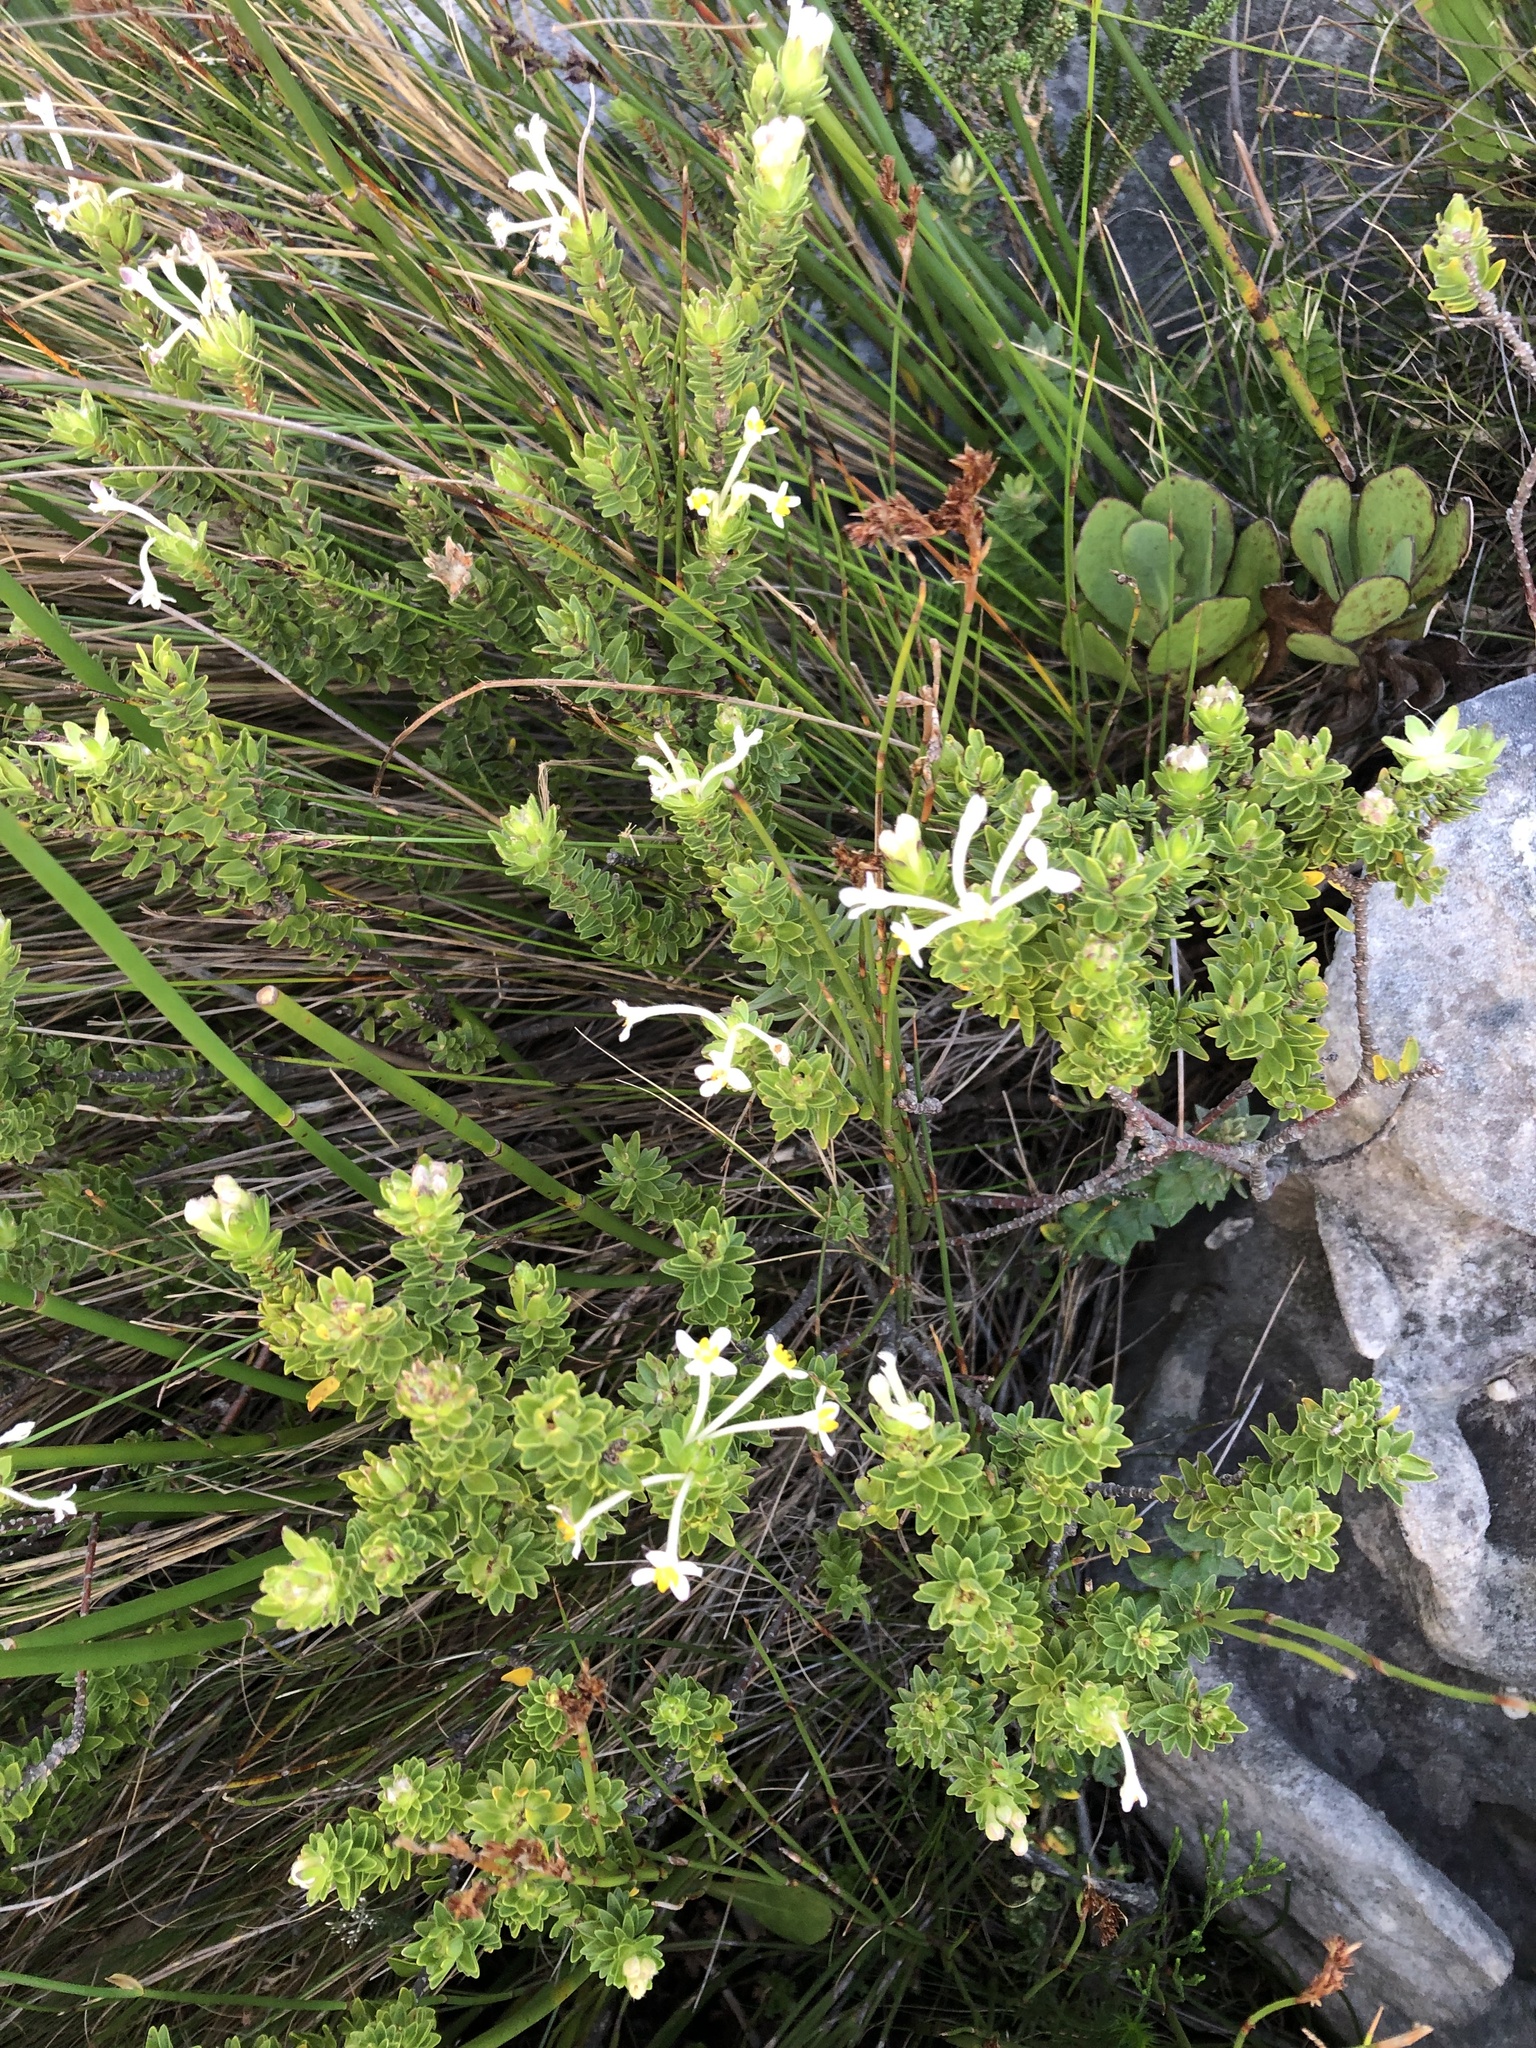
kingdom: Plantae
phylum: Tracheophyta
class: Magnoliopsida
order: Malvales
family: Thymelaeaceae
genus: Gnidia
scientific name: Gnidia tomentosa
